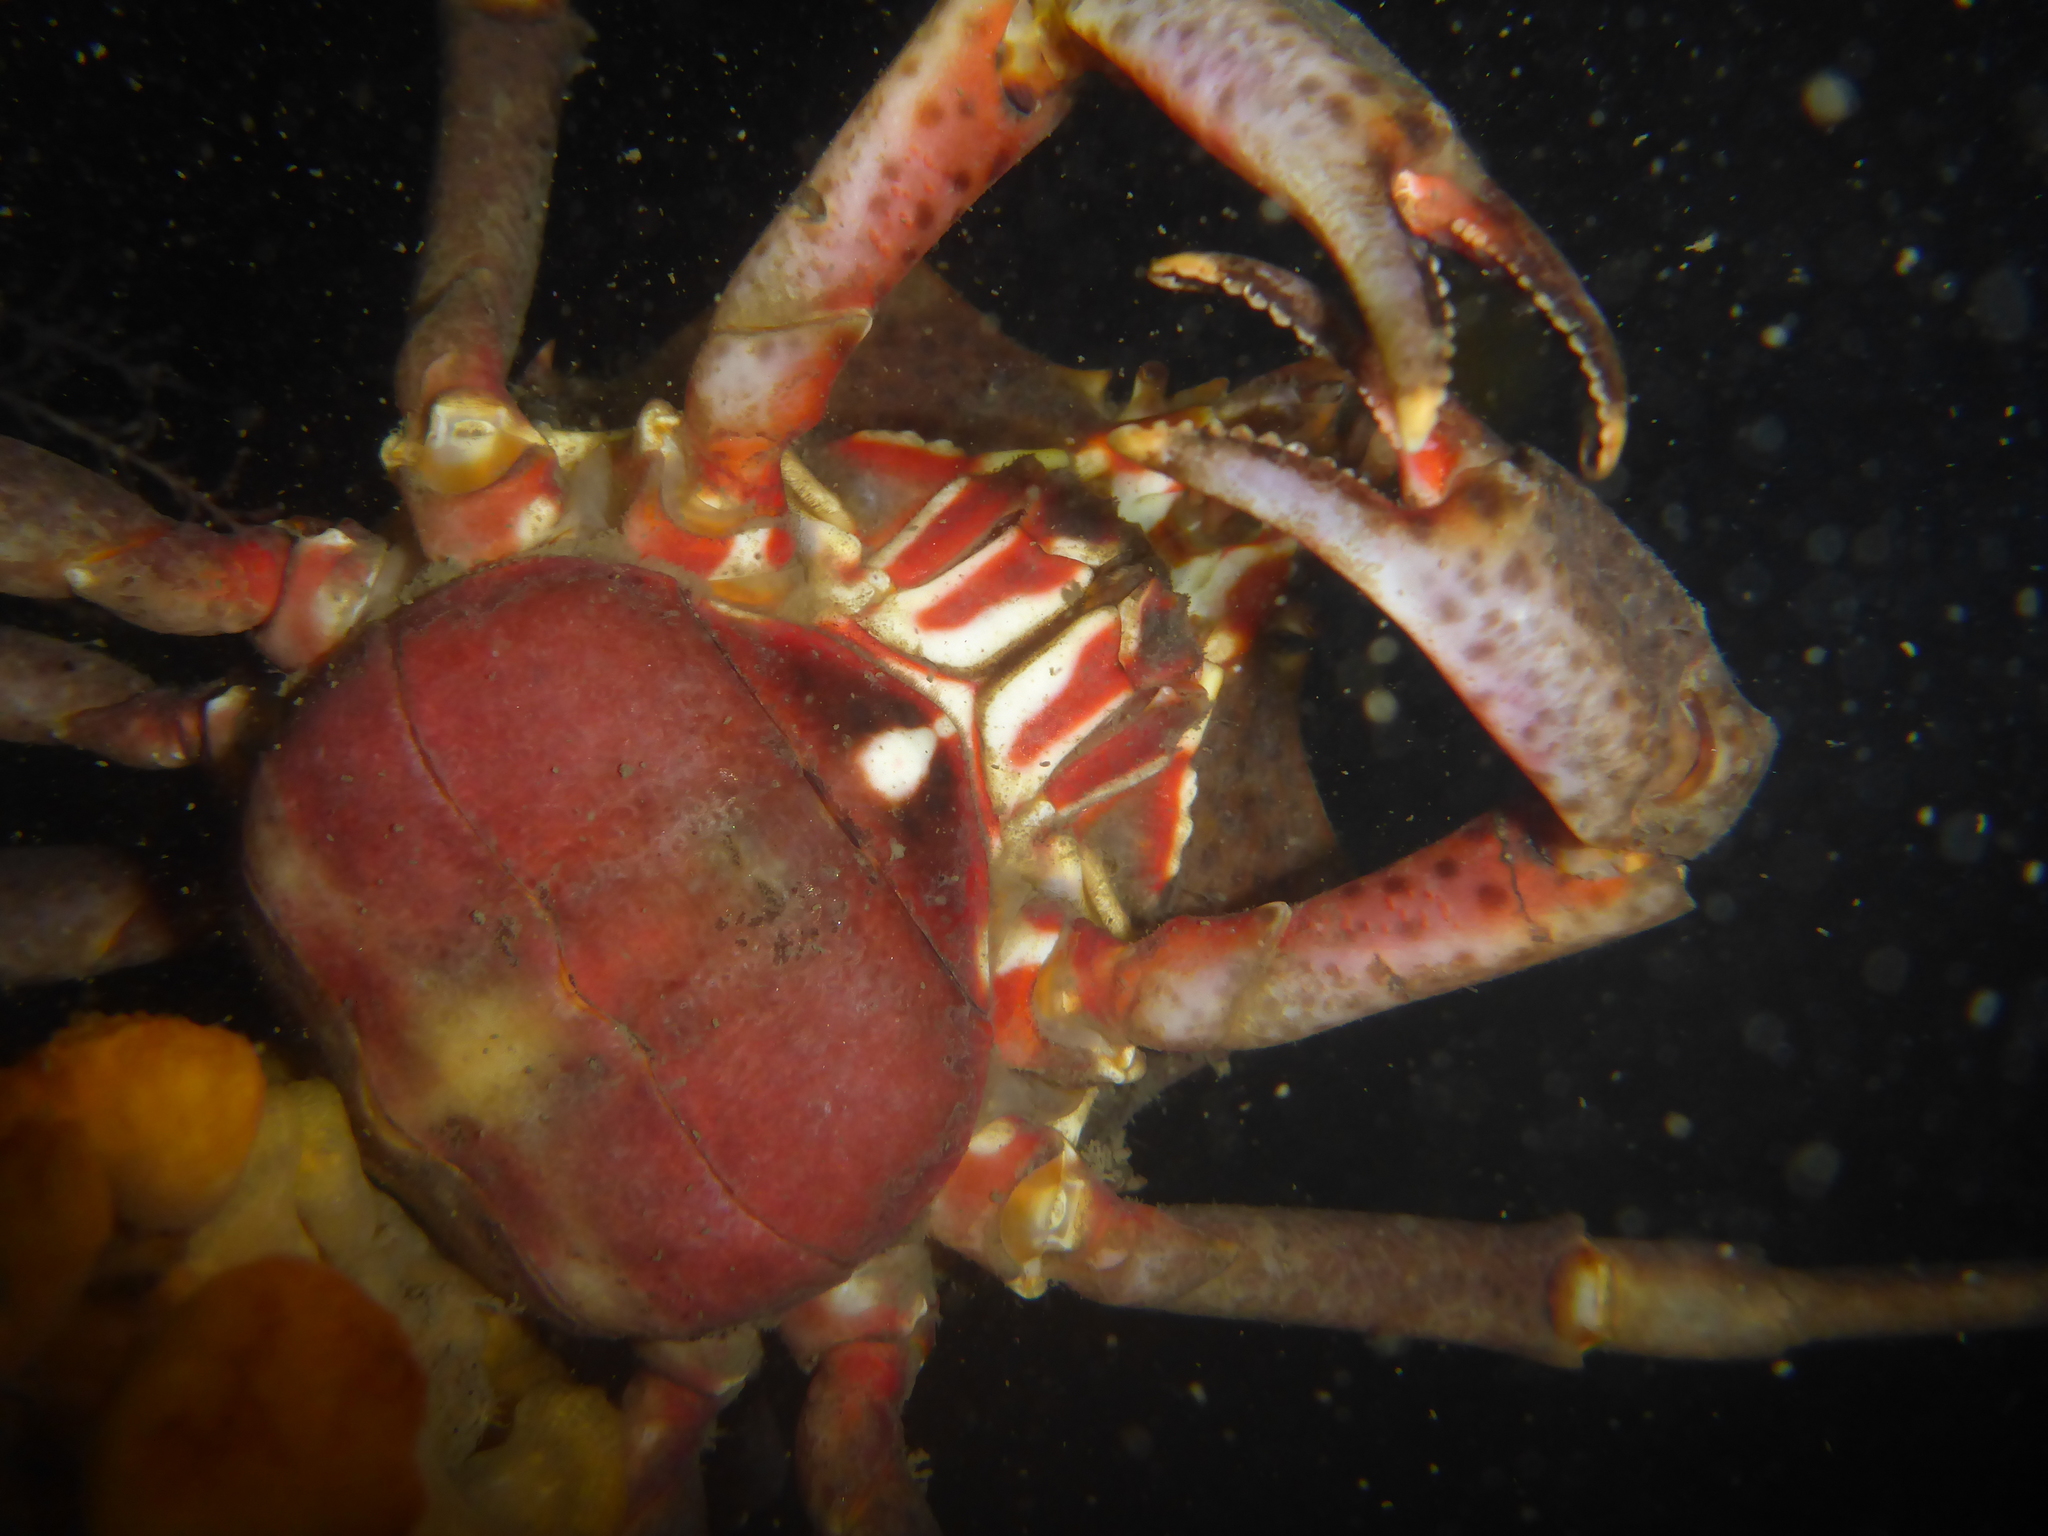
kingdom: Animalia
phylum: Arthropoda
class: Malacostraca
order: Decapoda
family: Epialtidae
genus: Pugettia
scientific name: Pugettia producta
